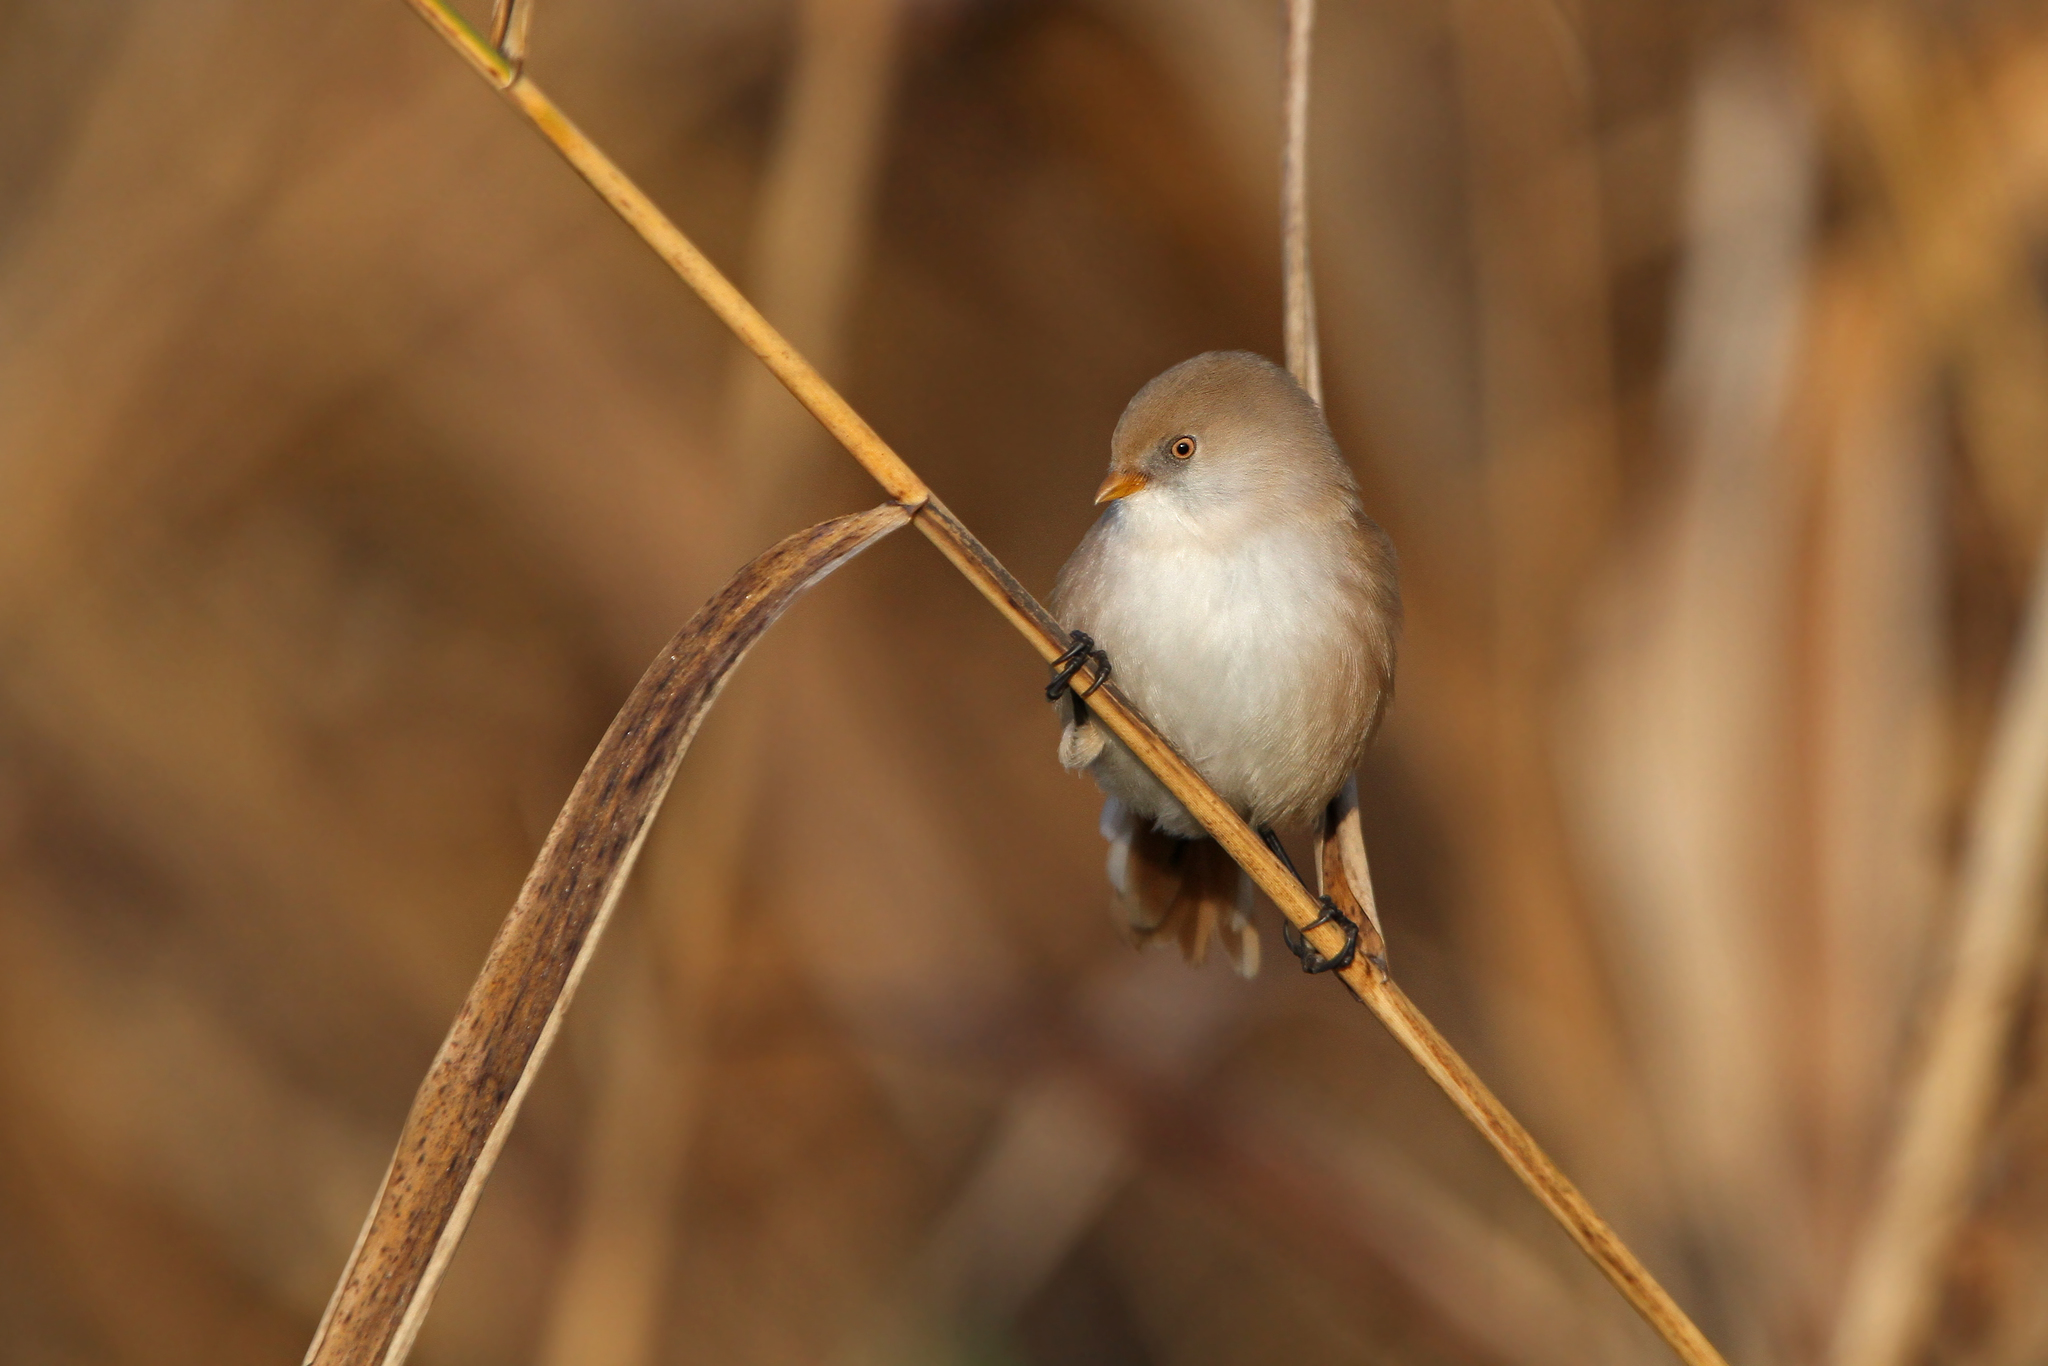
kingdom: Animalia
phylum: Chordata
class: Aves
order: Passeriformes
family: Panuridae
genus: Panurus
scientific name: Panurus biarmicus
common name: Bearded reedling
